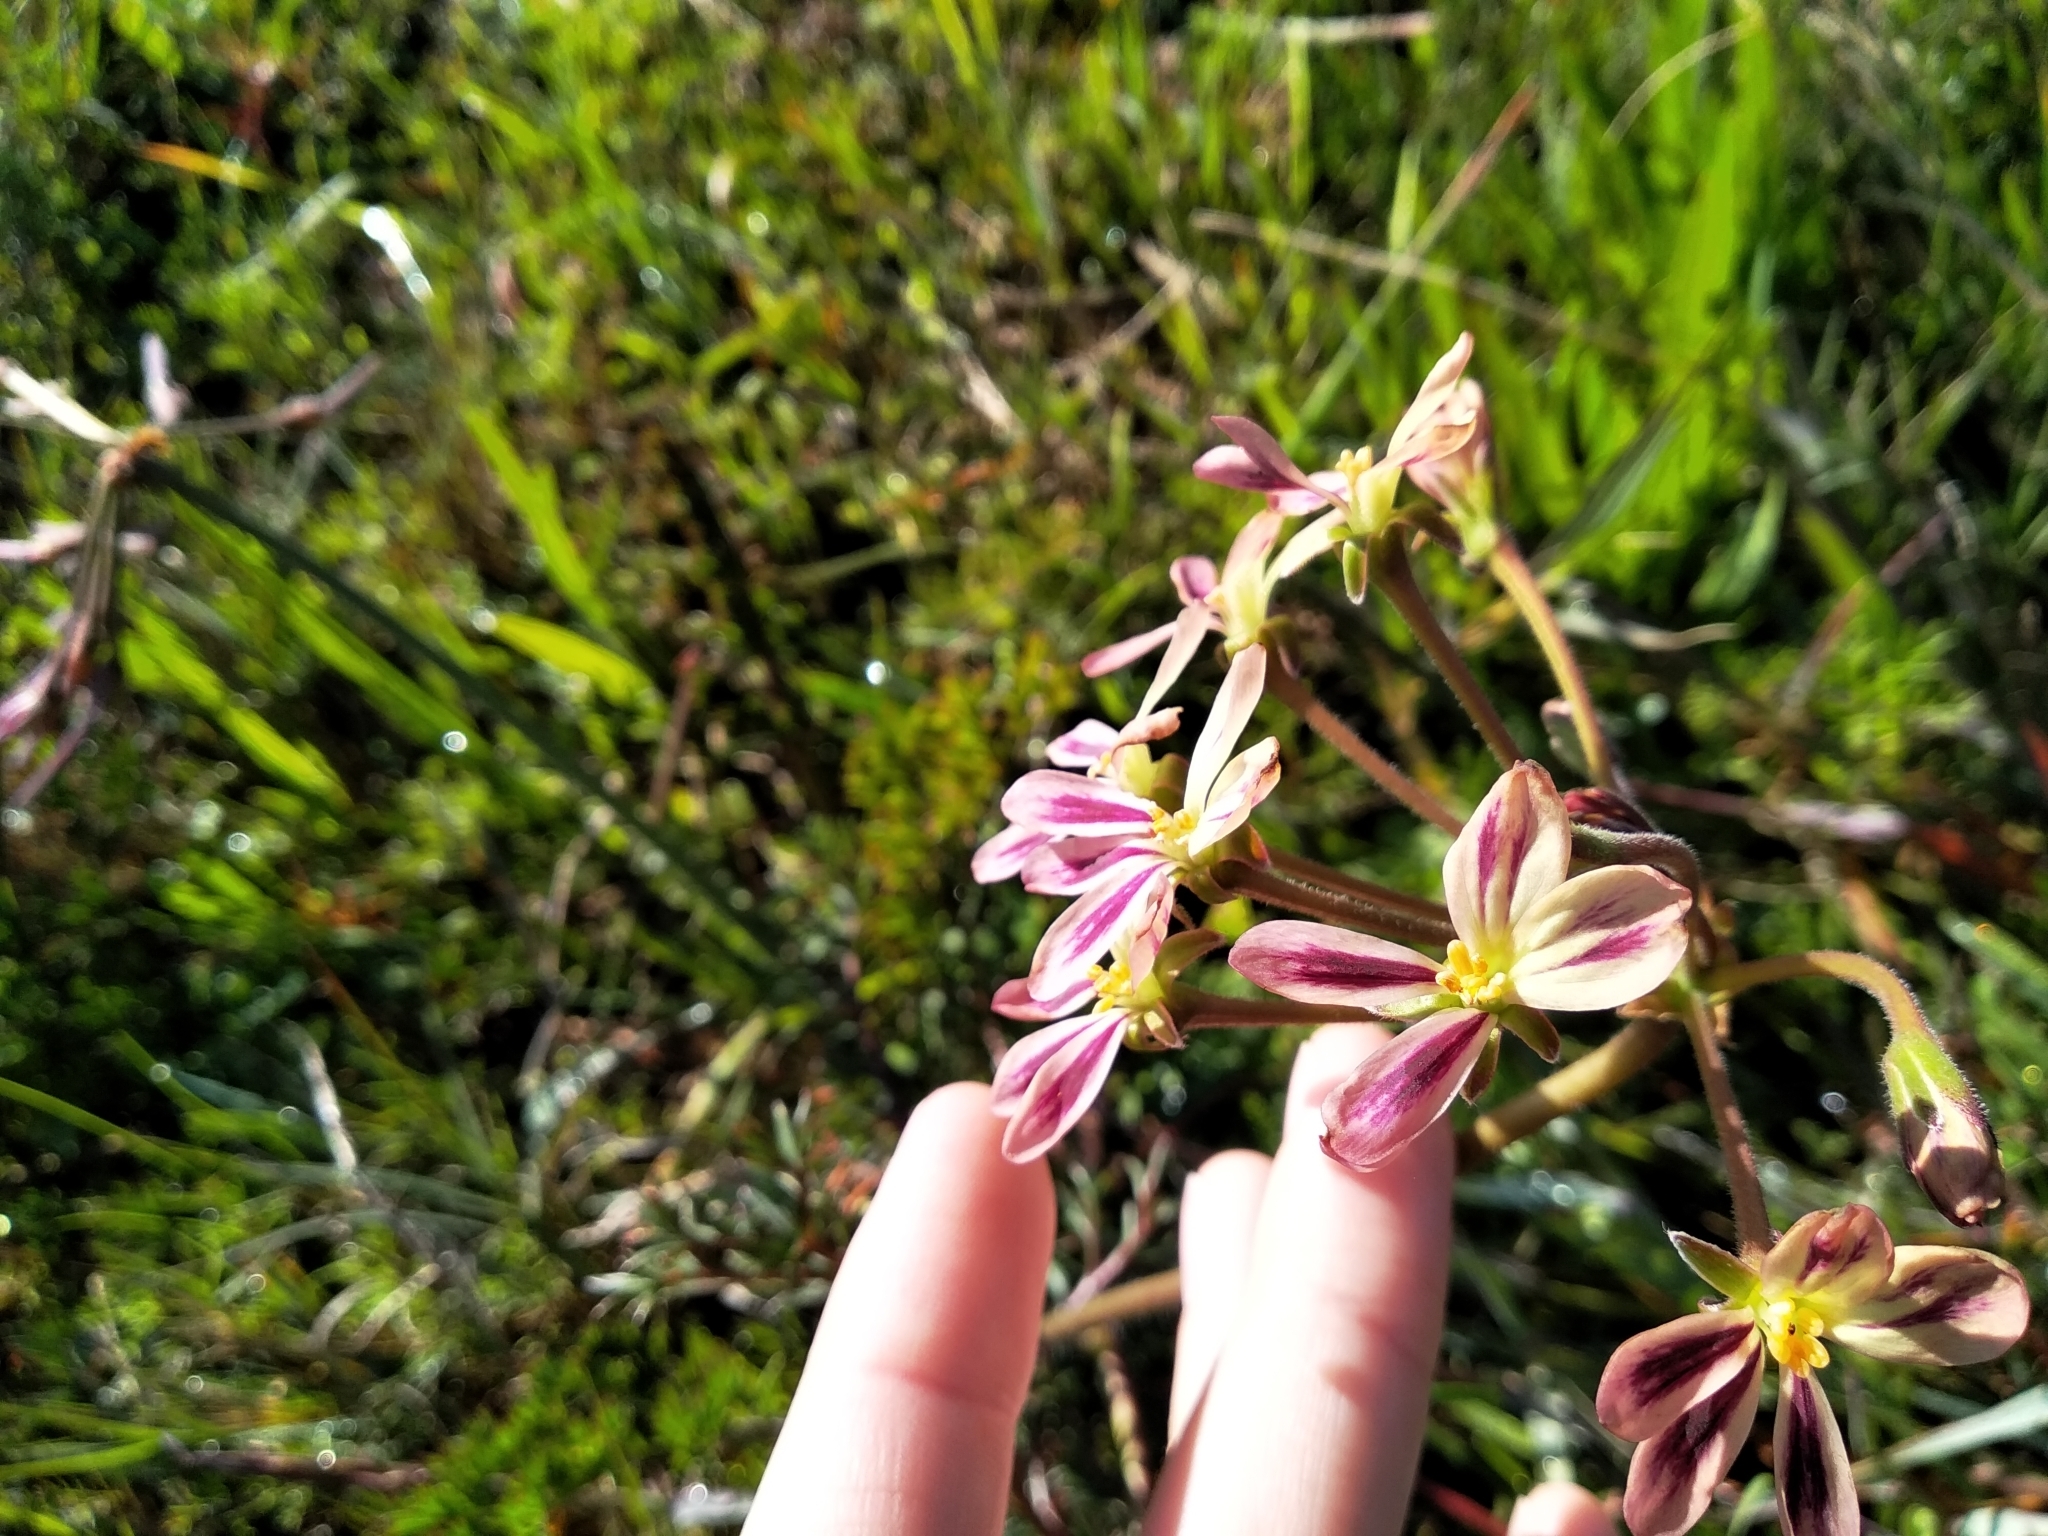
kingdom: Plantae
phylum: Tracheophyta
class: Magnoliopsida
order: Geraniales
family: Geraniaceae
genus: Pelargonium
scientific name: Pelargonium triste
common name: Night-scent pelargonium
